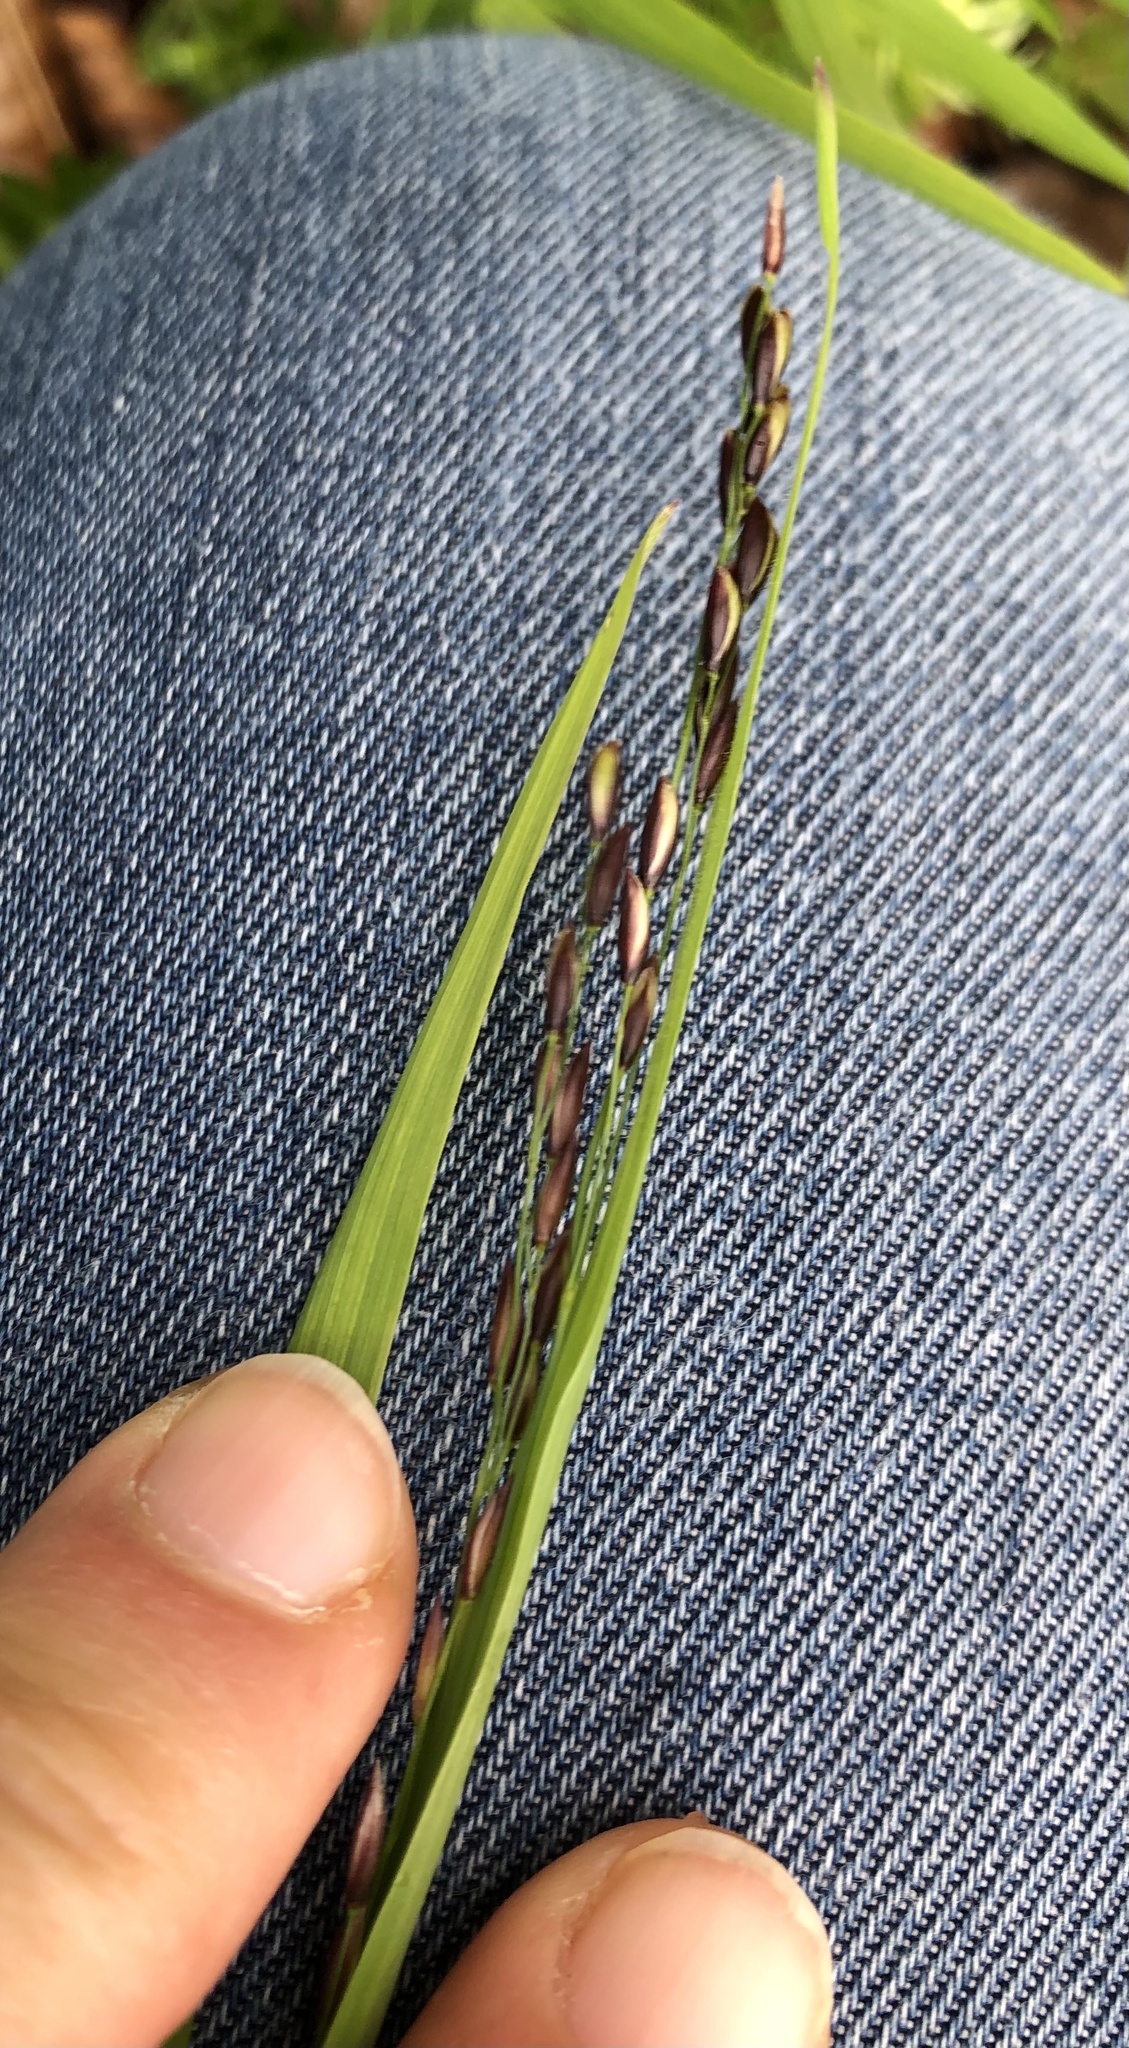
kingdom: Plantae
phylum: Tracheophyta
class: Liliopsida
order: Poales
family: Poaceae
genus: Melica
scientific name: Melica uniflora
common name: Wood melick
